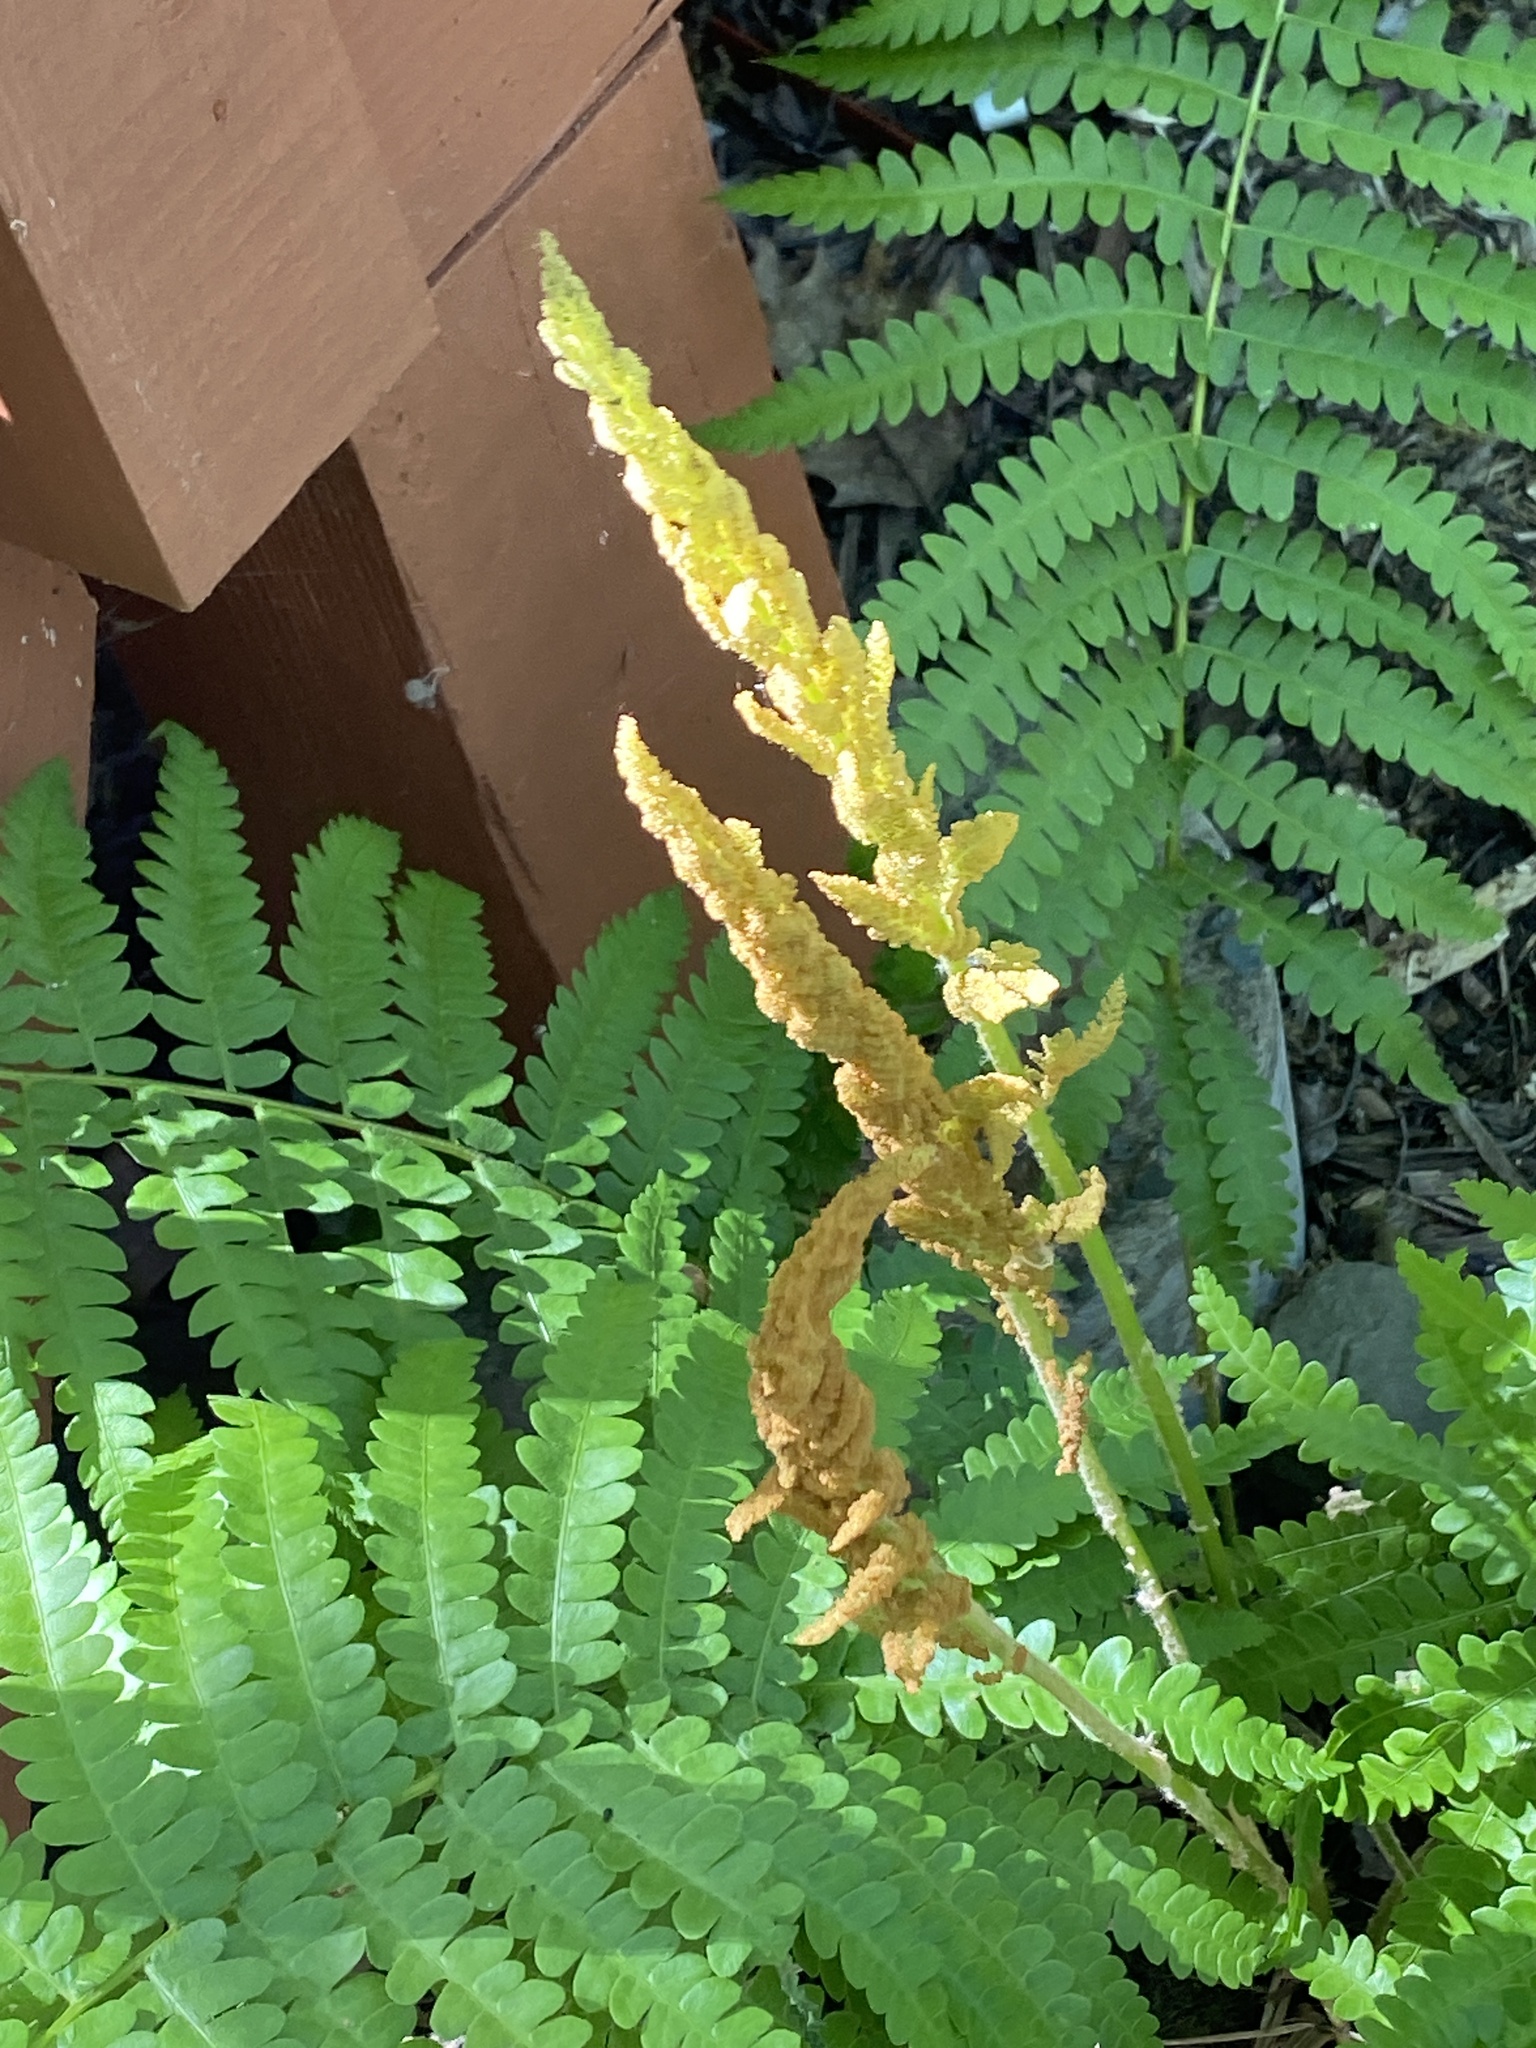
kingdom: Plantae
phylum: Tracheophyta
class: Polypodiopsida
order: Osmundales
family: Osmundaceae
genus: Osmundastrum
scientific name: Osmundastrum cinnamomeum
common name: Cinnamon fern
